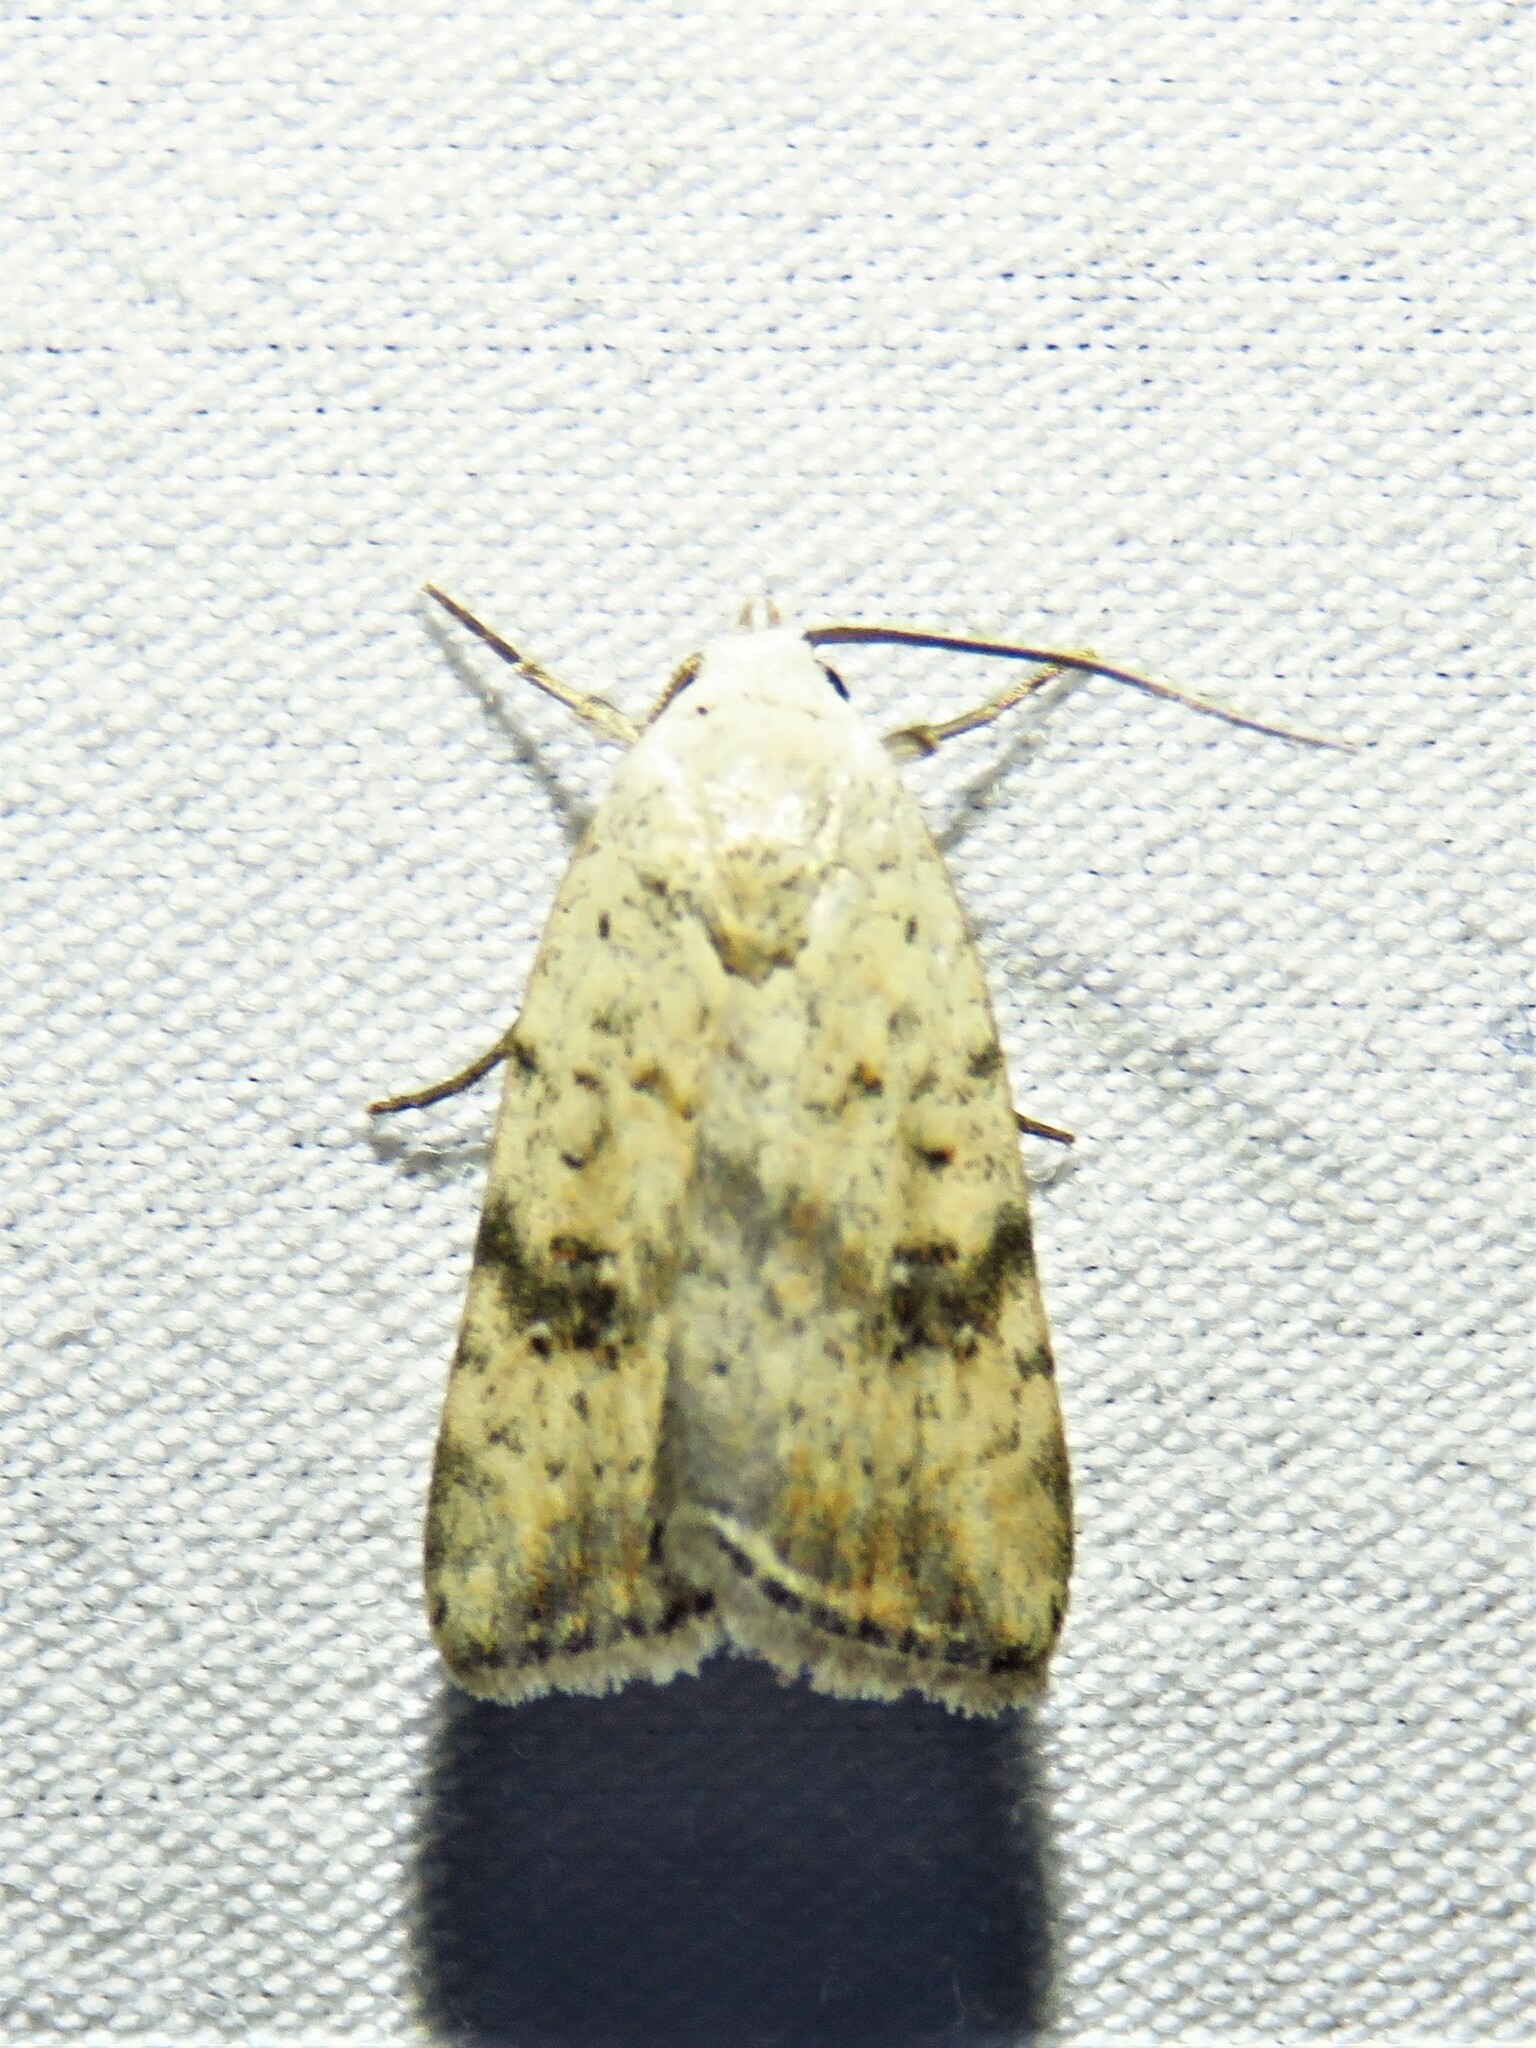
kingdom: Animalia
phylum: Arthropoda
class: Insecta
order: Lepidoptera
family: Noctuidae
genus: Micrathetis
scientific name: Micrathetis triplex
